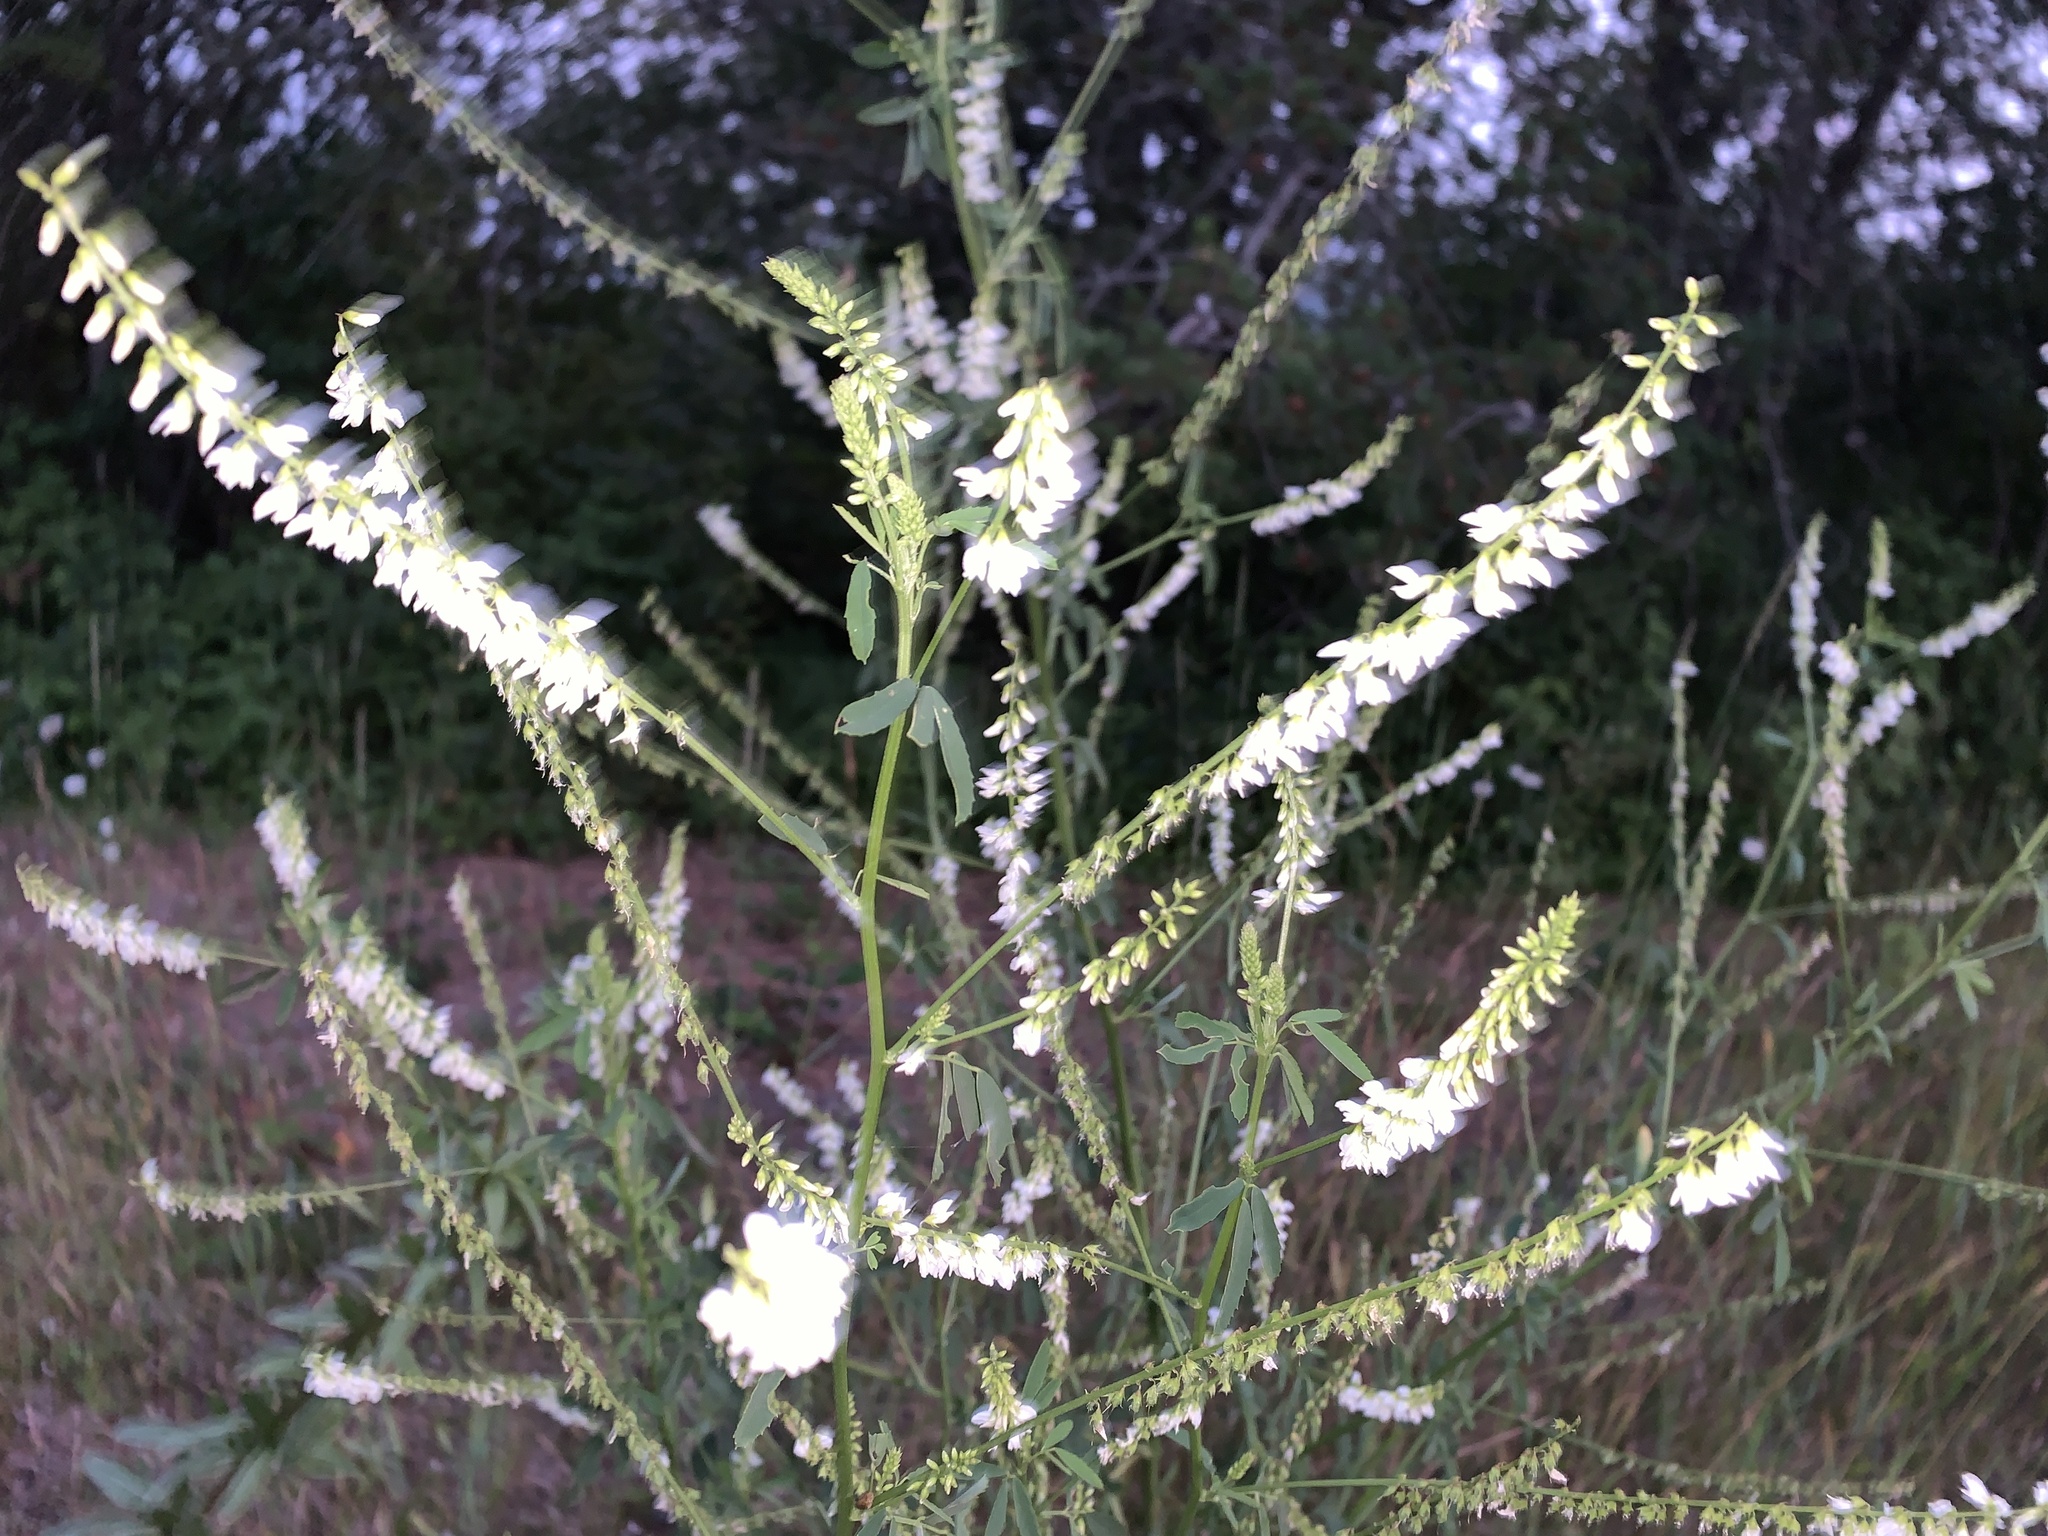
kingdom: Plantae
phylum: Tracheophyta
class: Magnoliopsida
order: Fabales
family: Fabaceae
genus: Melilotus
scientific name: Melilotus albus
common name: White melilot
